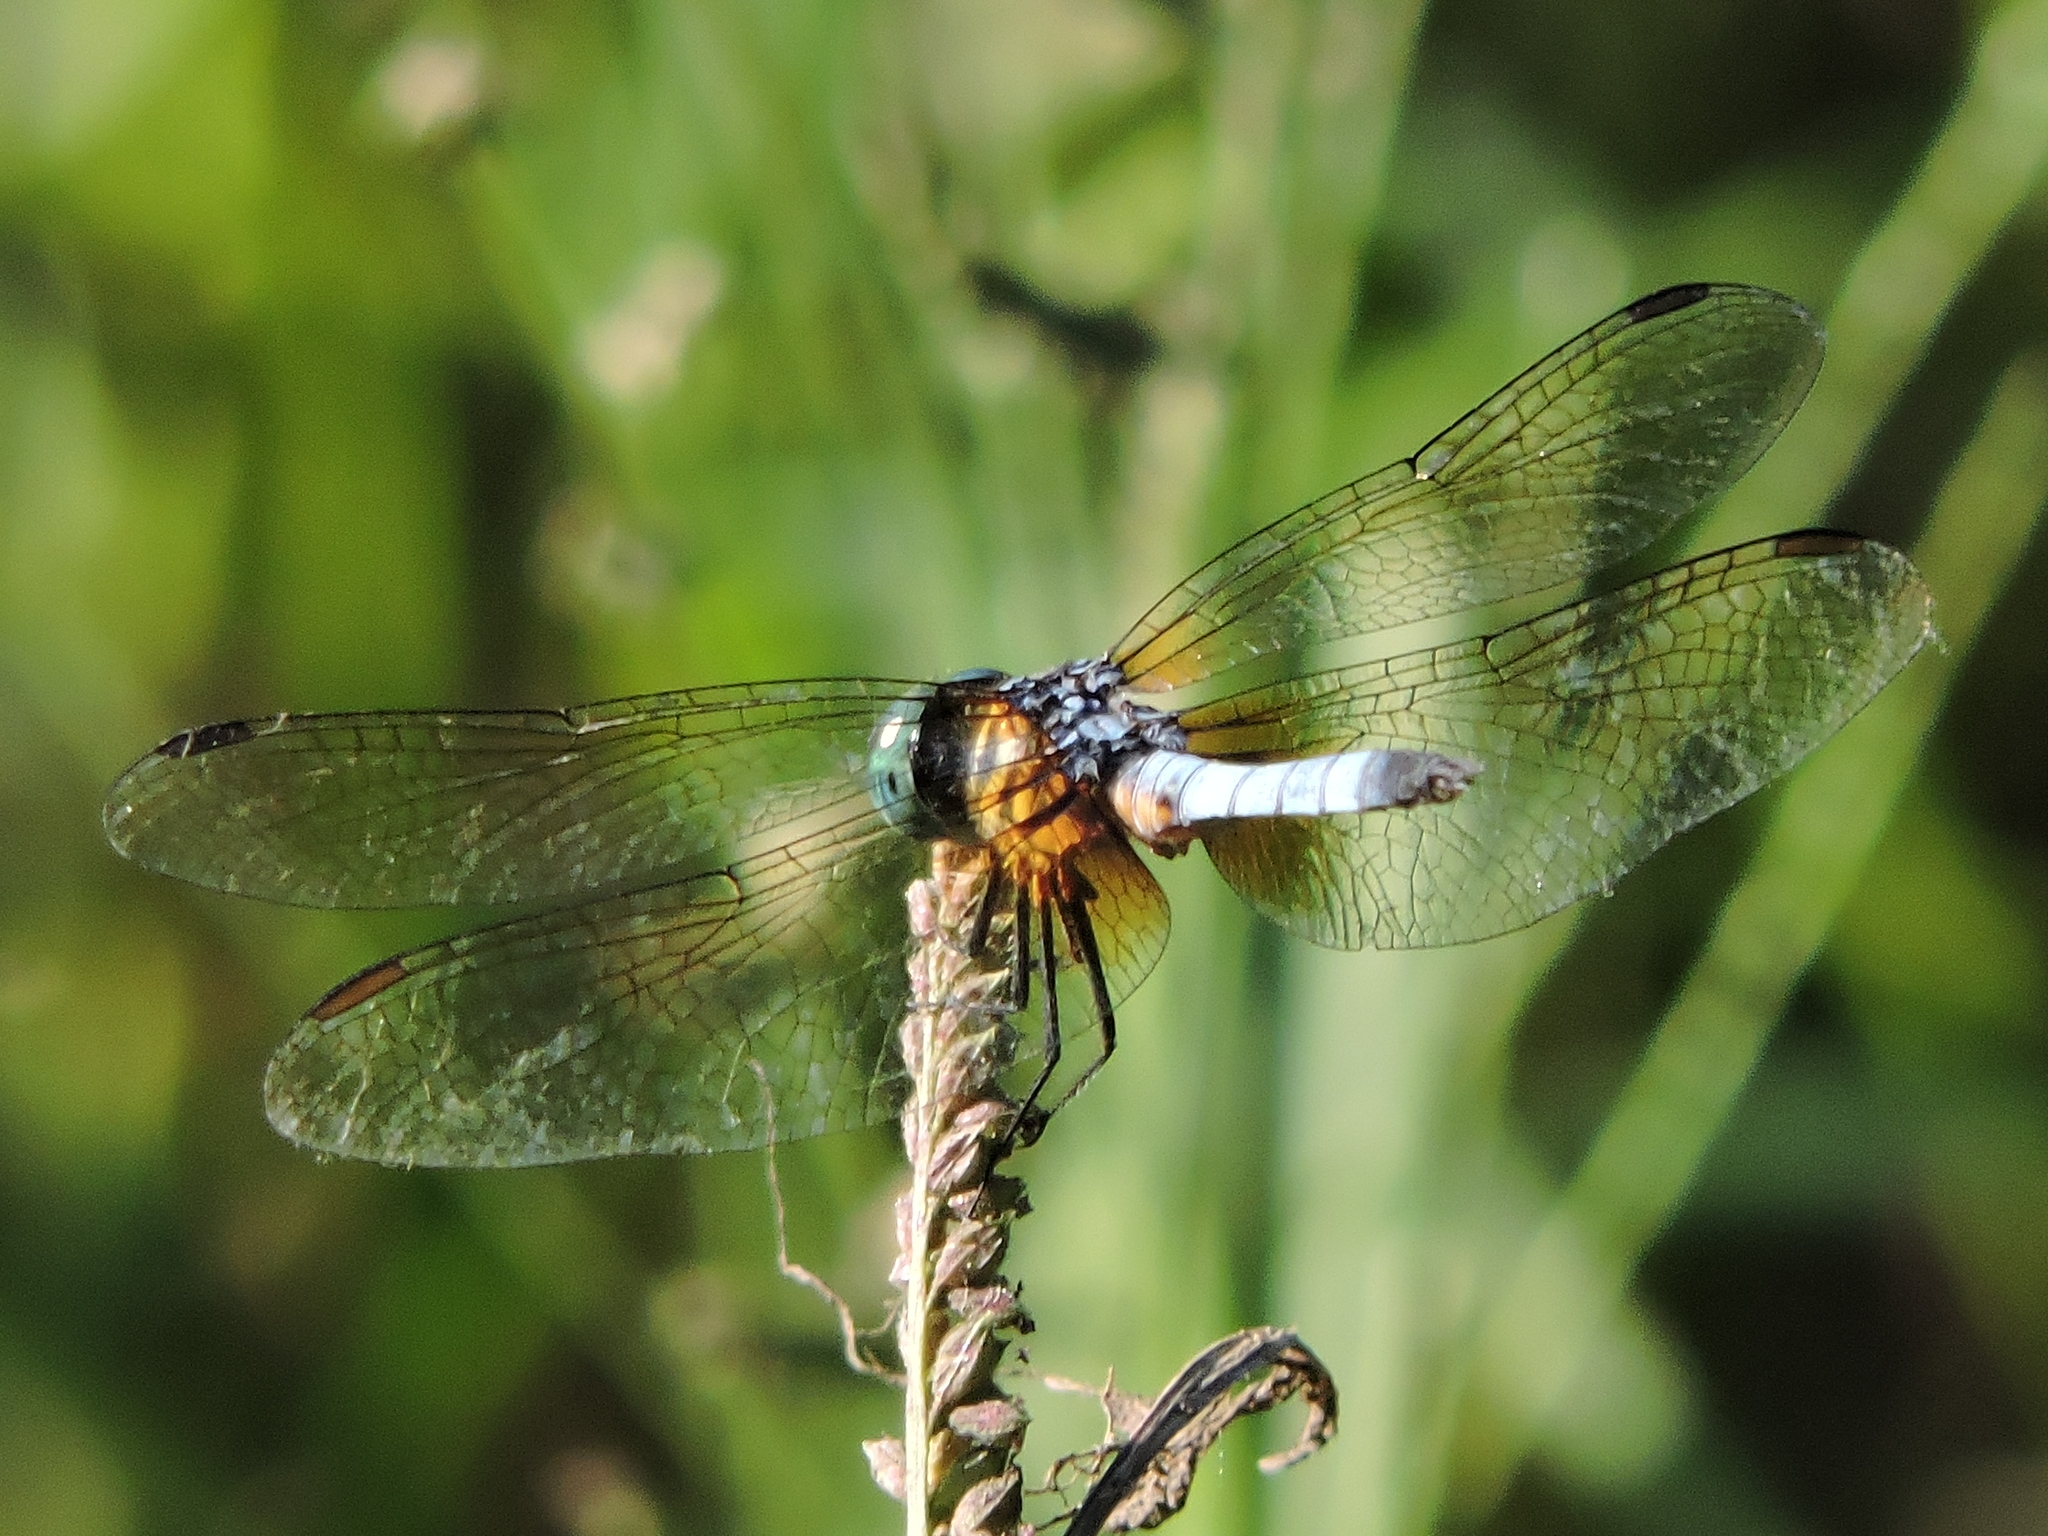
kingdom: Animalia
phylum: Arthropoda
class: Insecta
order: Odonata
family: Libellulidae
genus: Pachydiplax
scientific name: Pachydiplax longipennis
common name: Blue dasher
